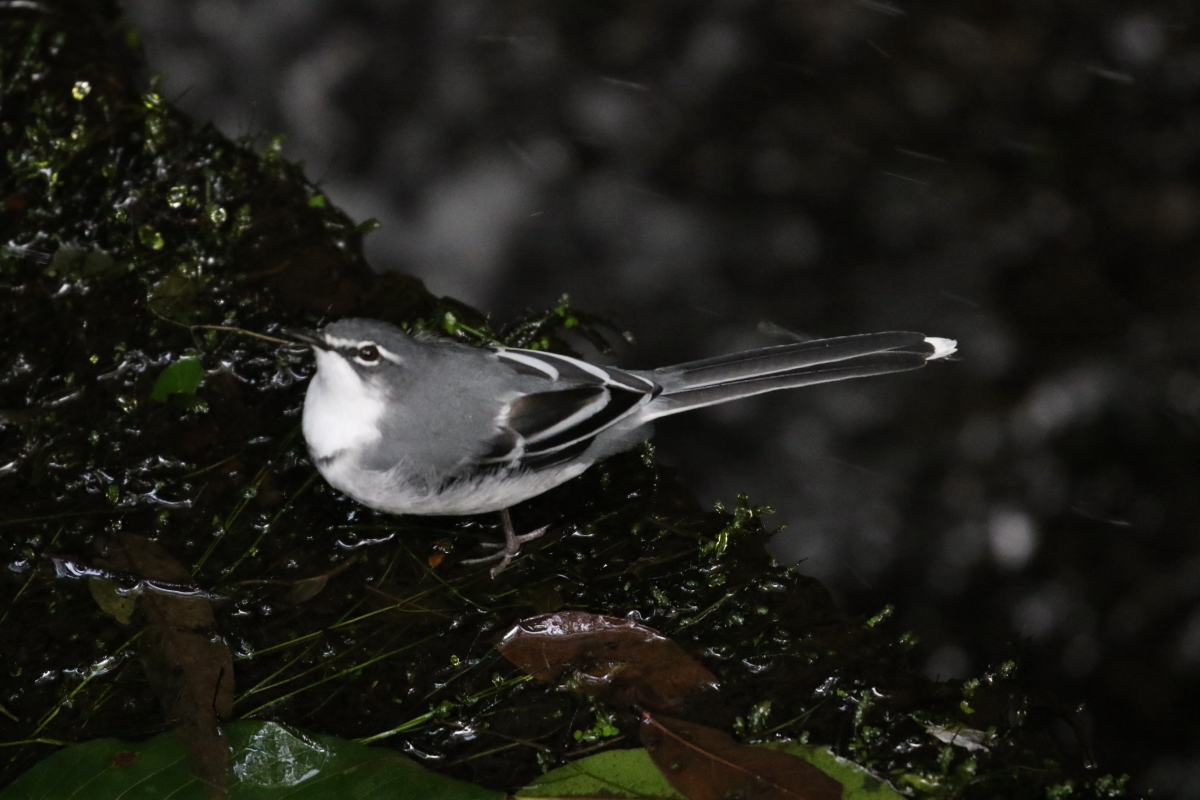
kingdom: Animalia
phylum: Chordata
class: Aves
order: Passeriformes
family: Motacillidae
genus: Motacilla
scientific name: Motacilla clara
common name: Mountain wagtail
